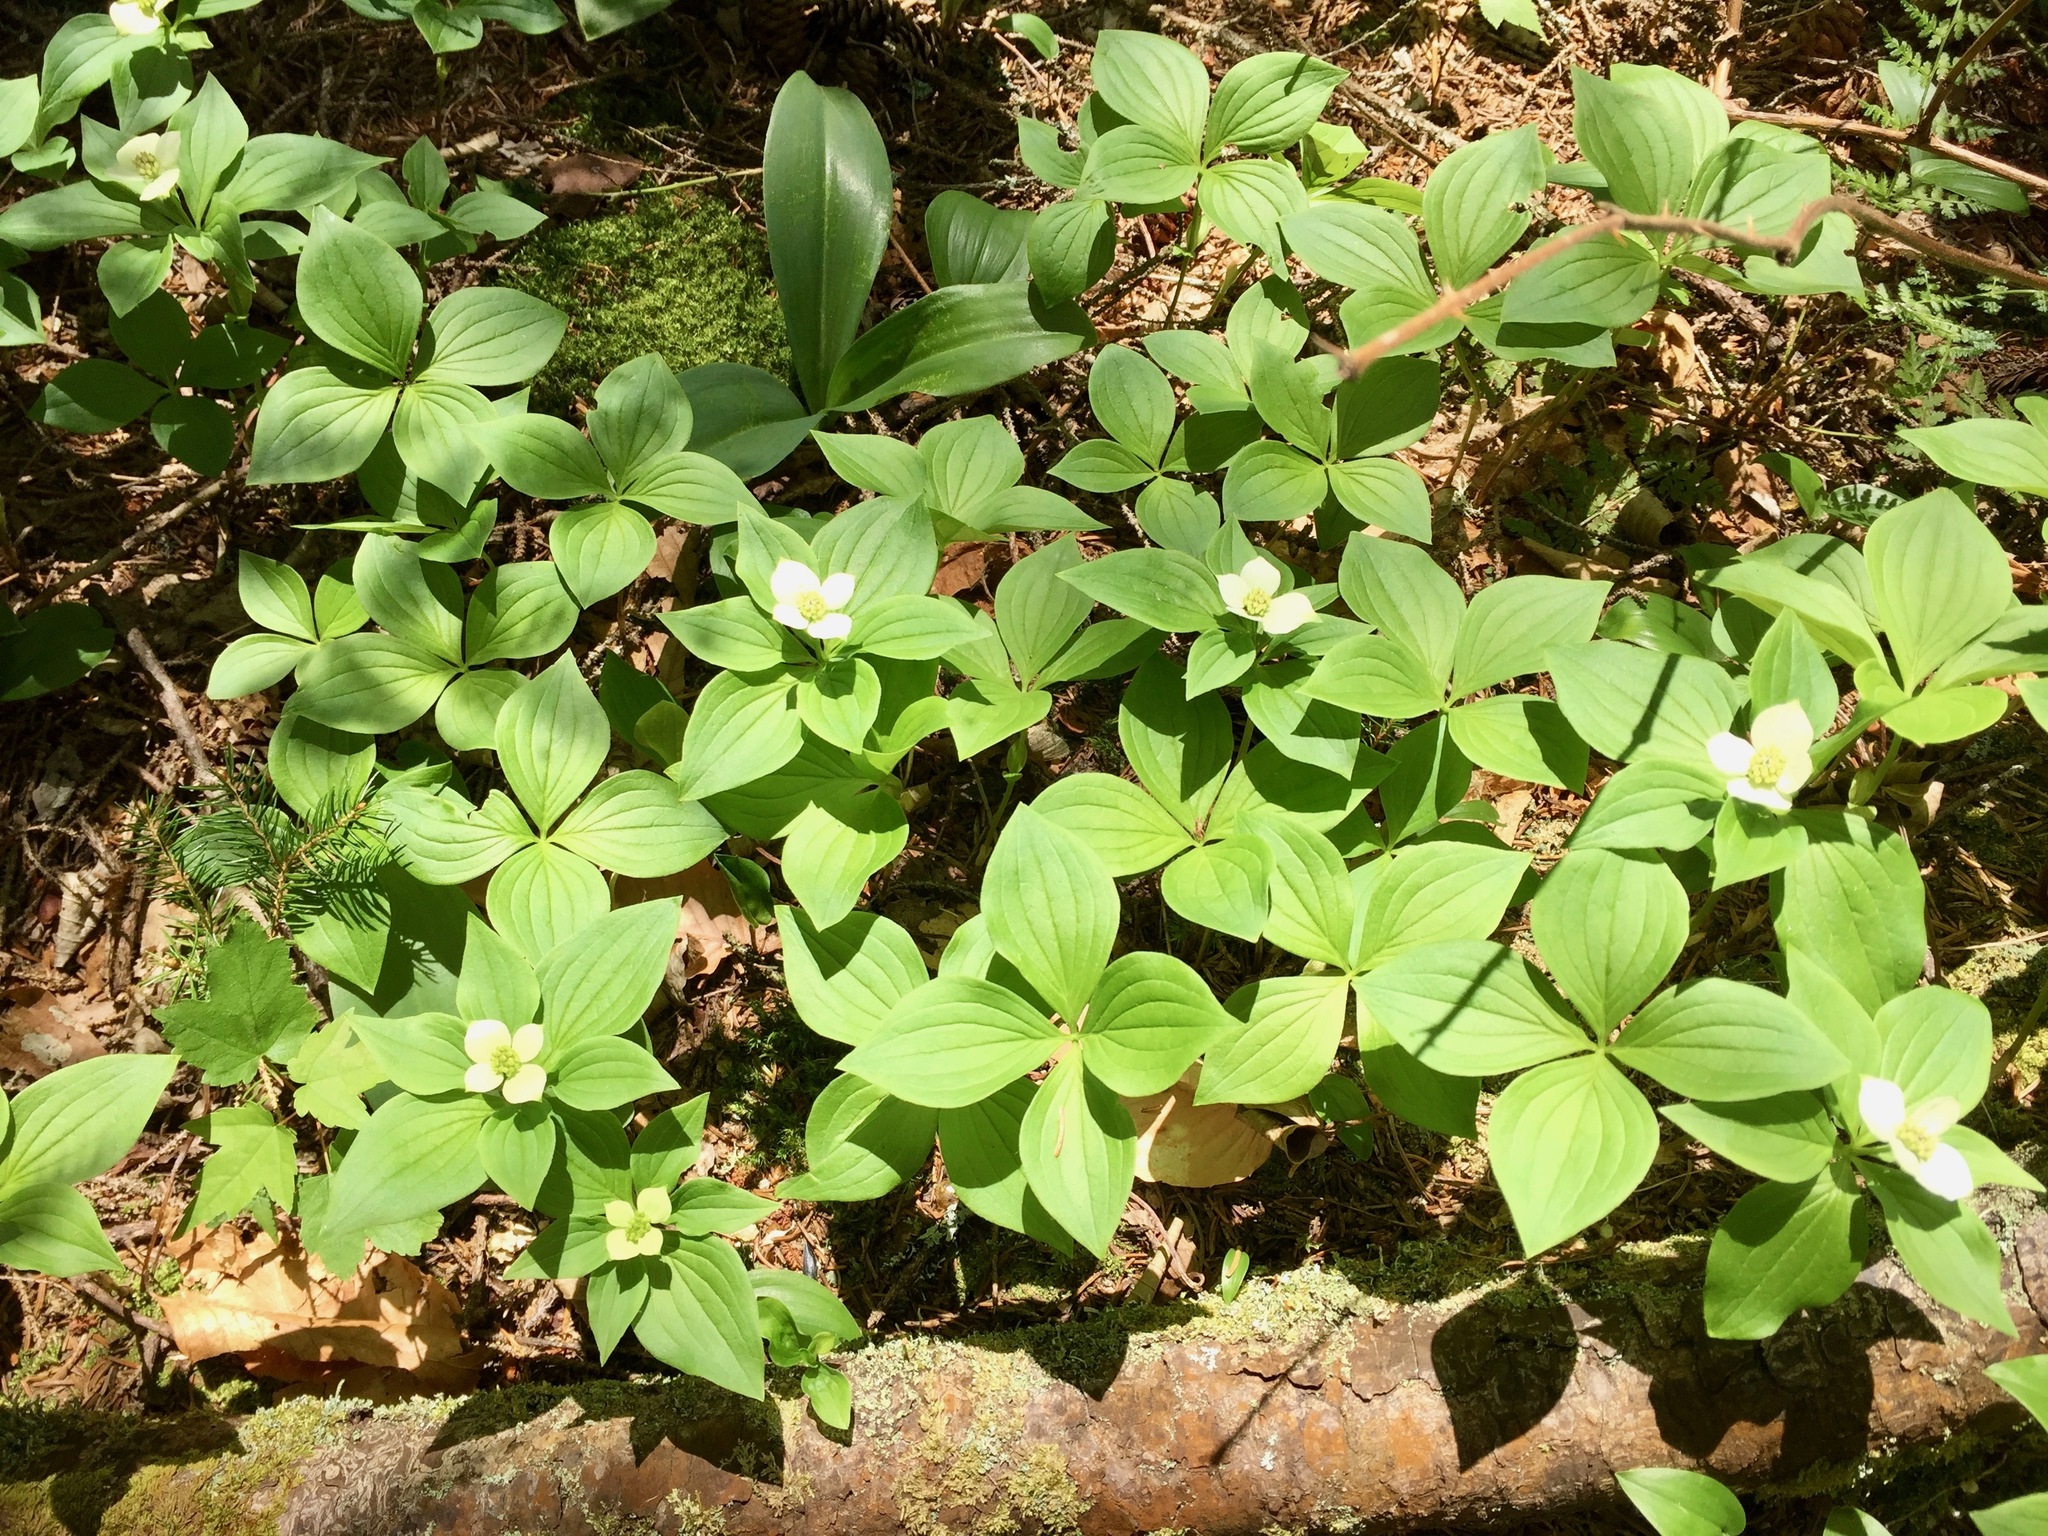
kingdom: Plantae
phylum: Tracheophyta
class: Magnoliopsida
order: Cornales
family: Cornaceae
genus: Cornus
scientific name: Cornus canadensis
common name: Creeping dogwood
